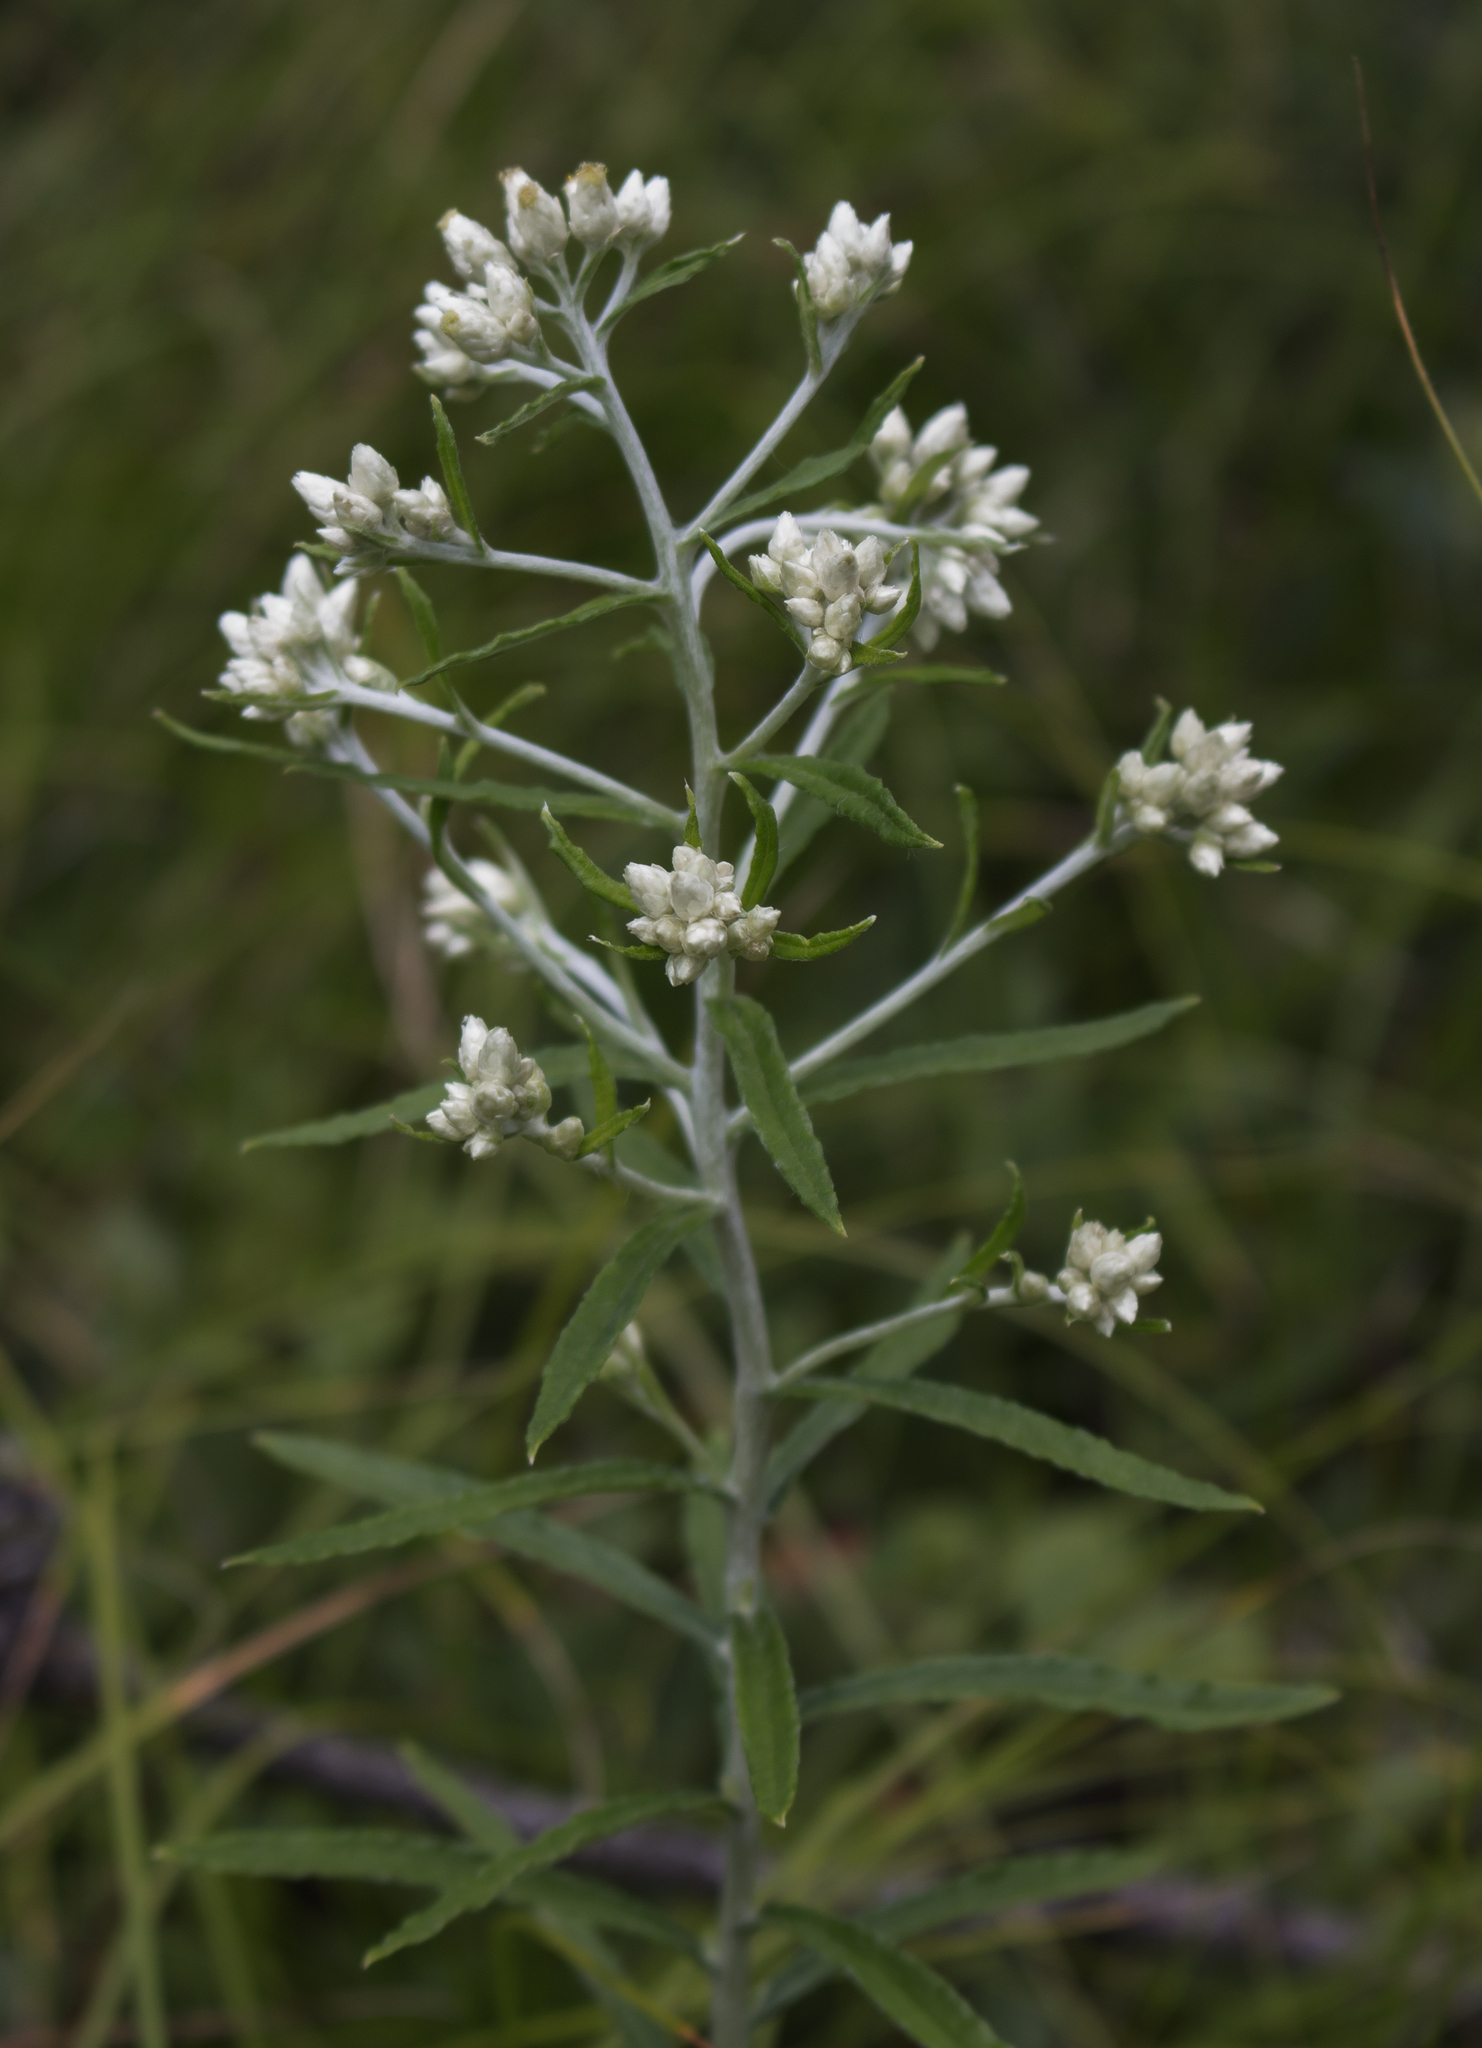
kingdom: Plantae
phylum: Tracheophyta
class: Magnoliopsida
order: Asterales
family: Asteraceae
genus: Pseudognaphalium
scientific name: Pseudognaphalium obtusifolium
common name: Eastern rabbit-tobacco
